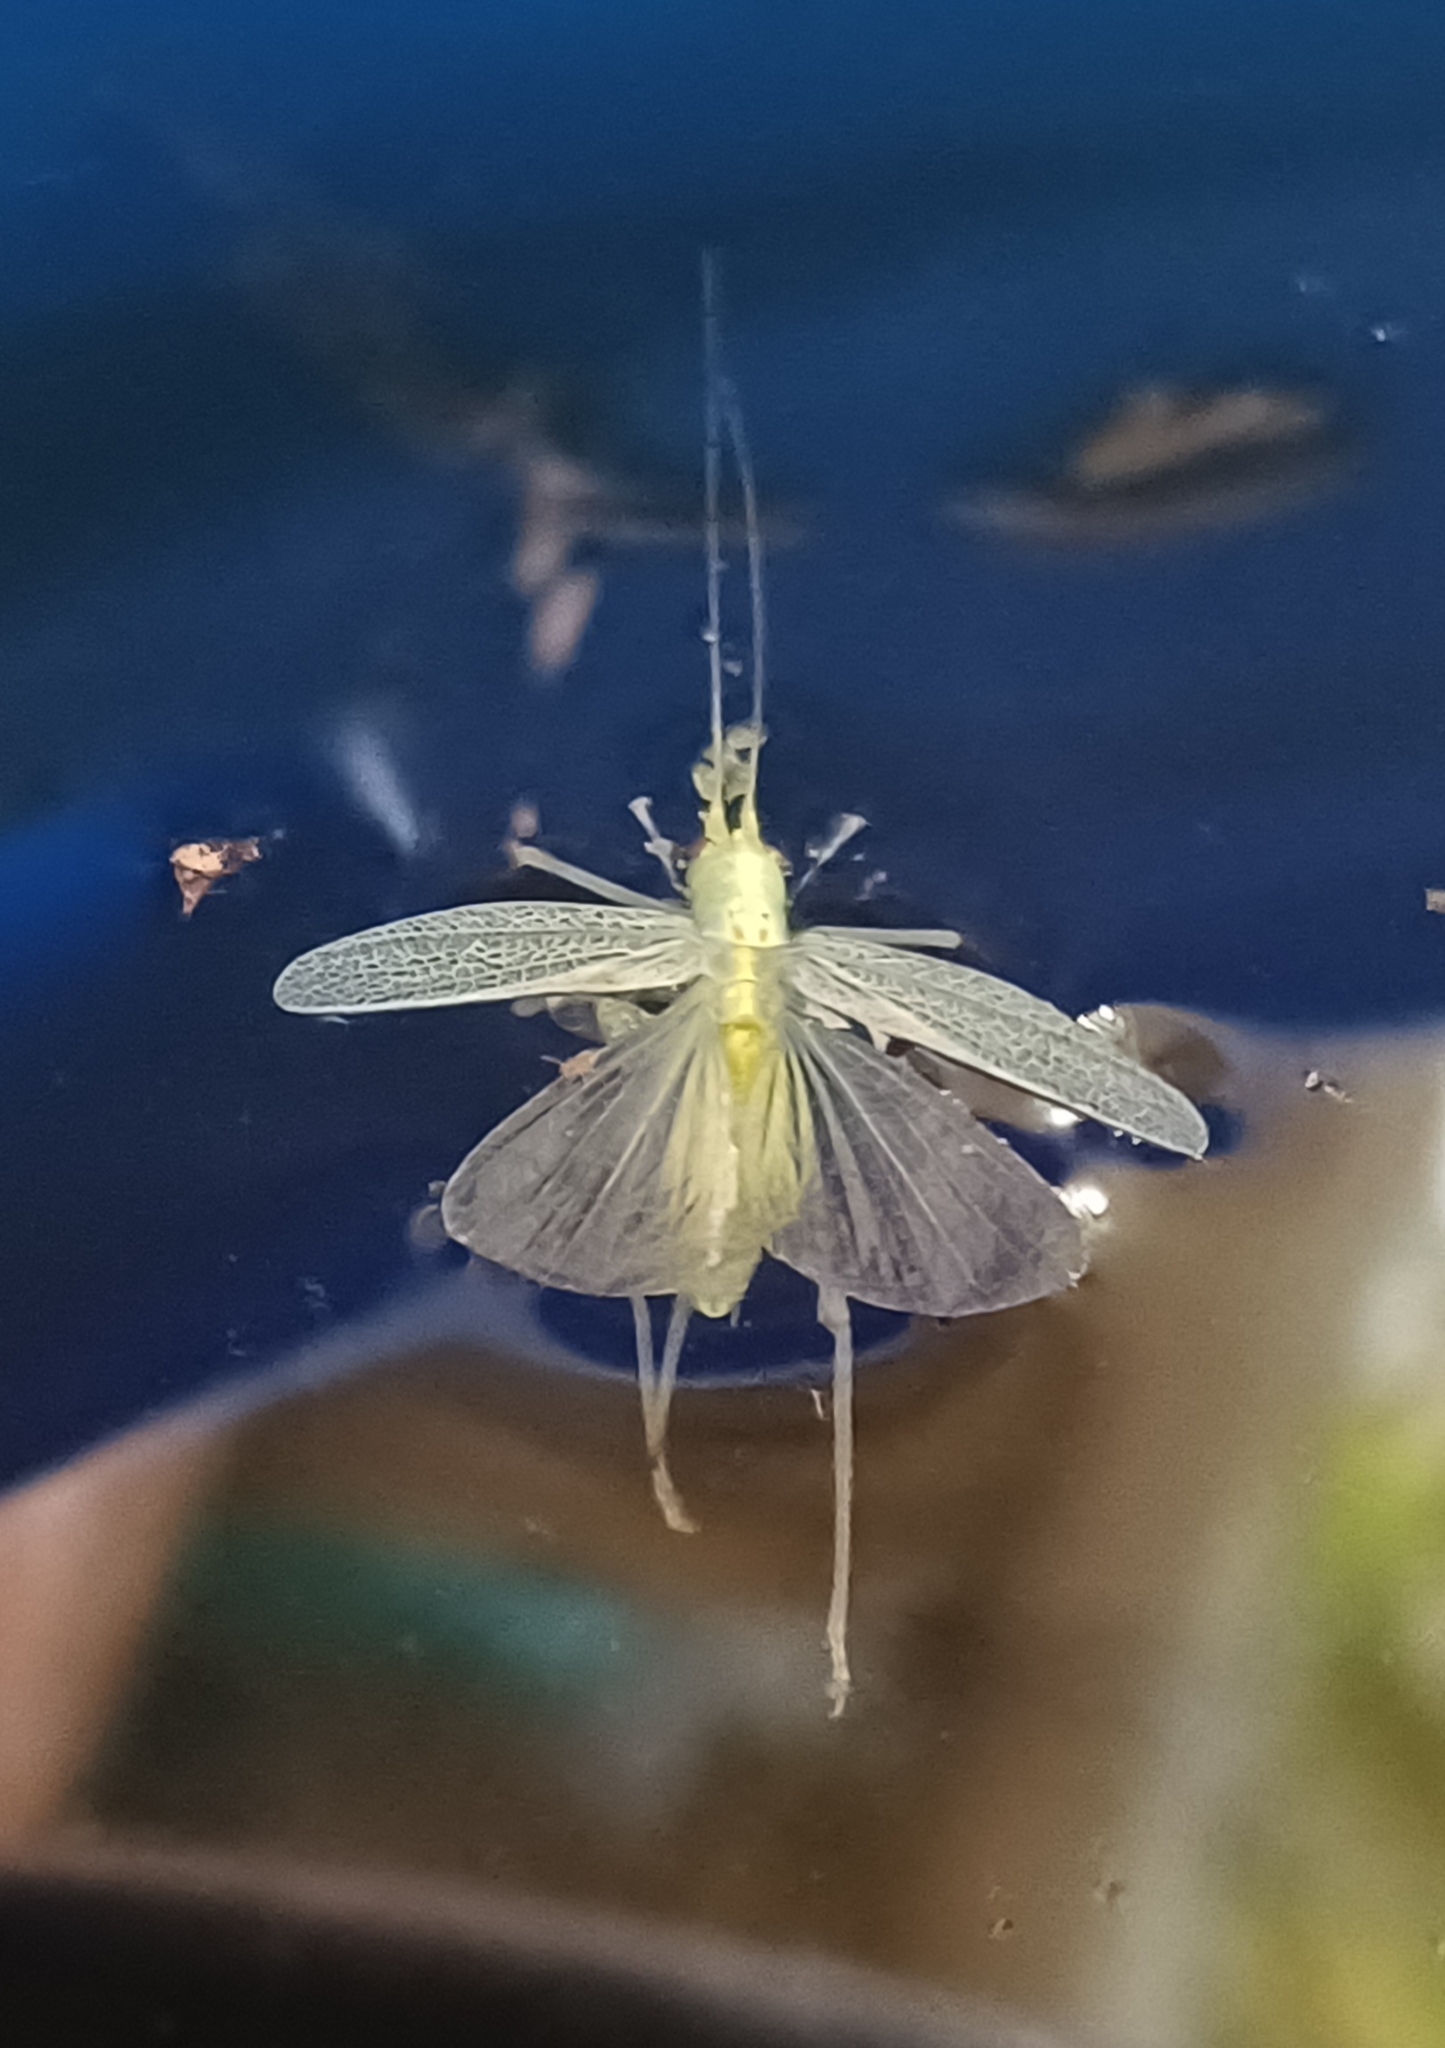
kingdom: Animalia
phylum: Arthropoda
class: Insecta
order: Orthoptera
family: Tettigoniidae
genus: Meconema
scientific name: Meconema thalassinum
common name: Oak bush-cricket
